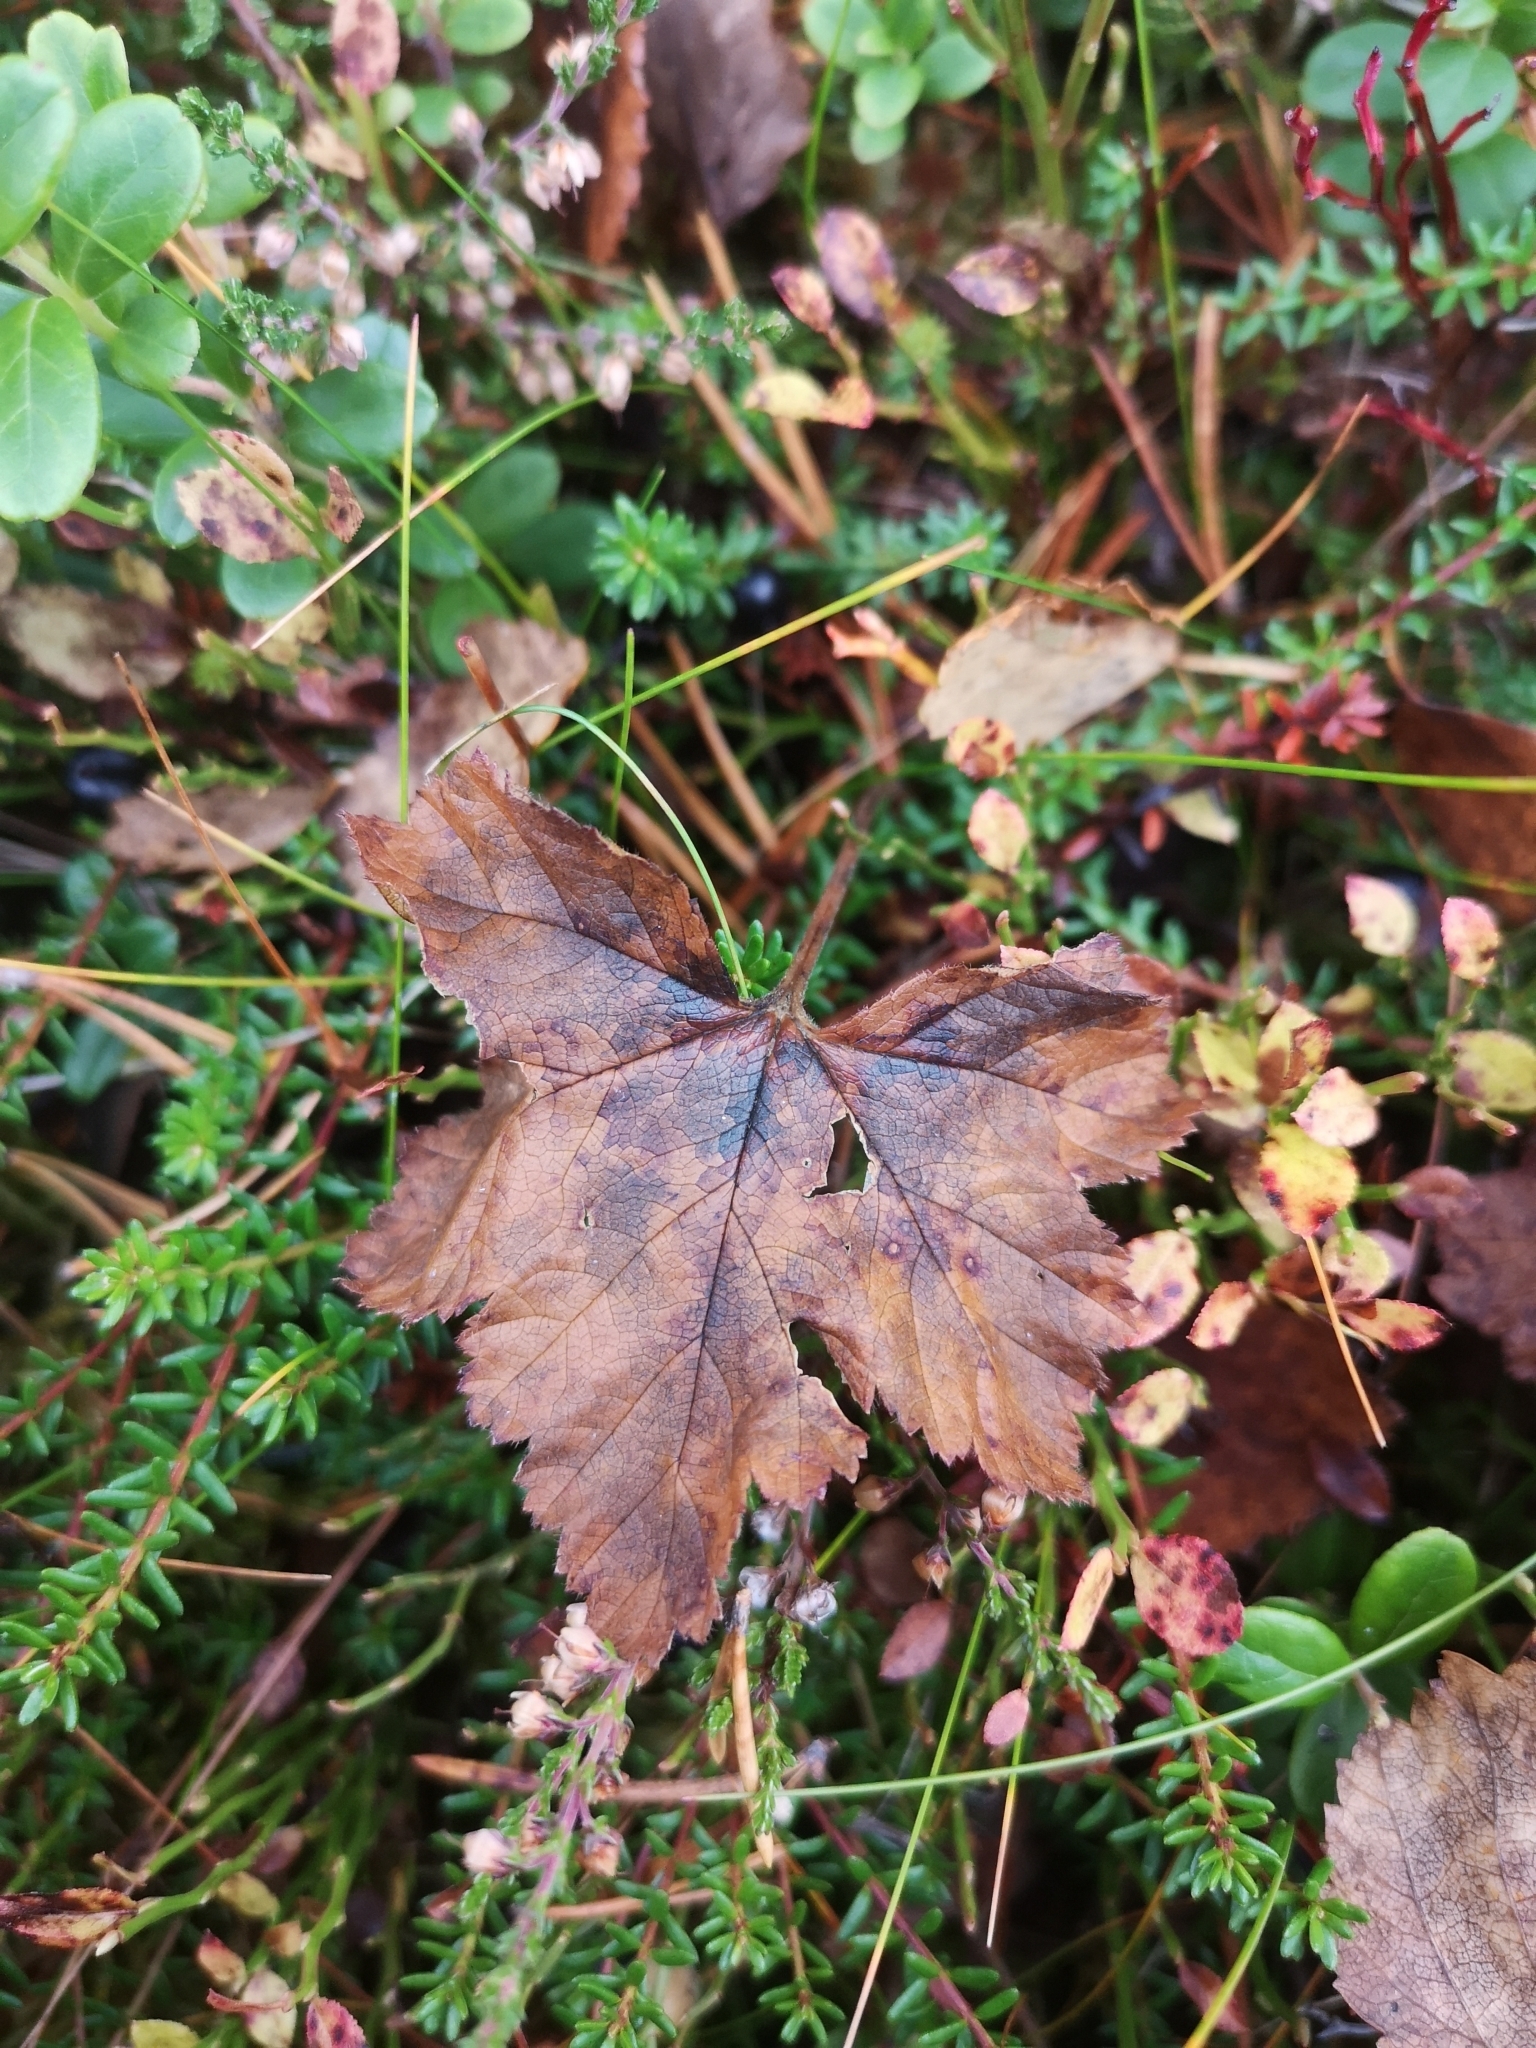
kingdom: Plantae
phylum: Tracheophyta
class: Magnoliopsida
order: Rosales
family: Rosaceae
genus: Rubus
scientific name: Rubus chamaemorus
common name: Cloudberry
